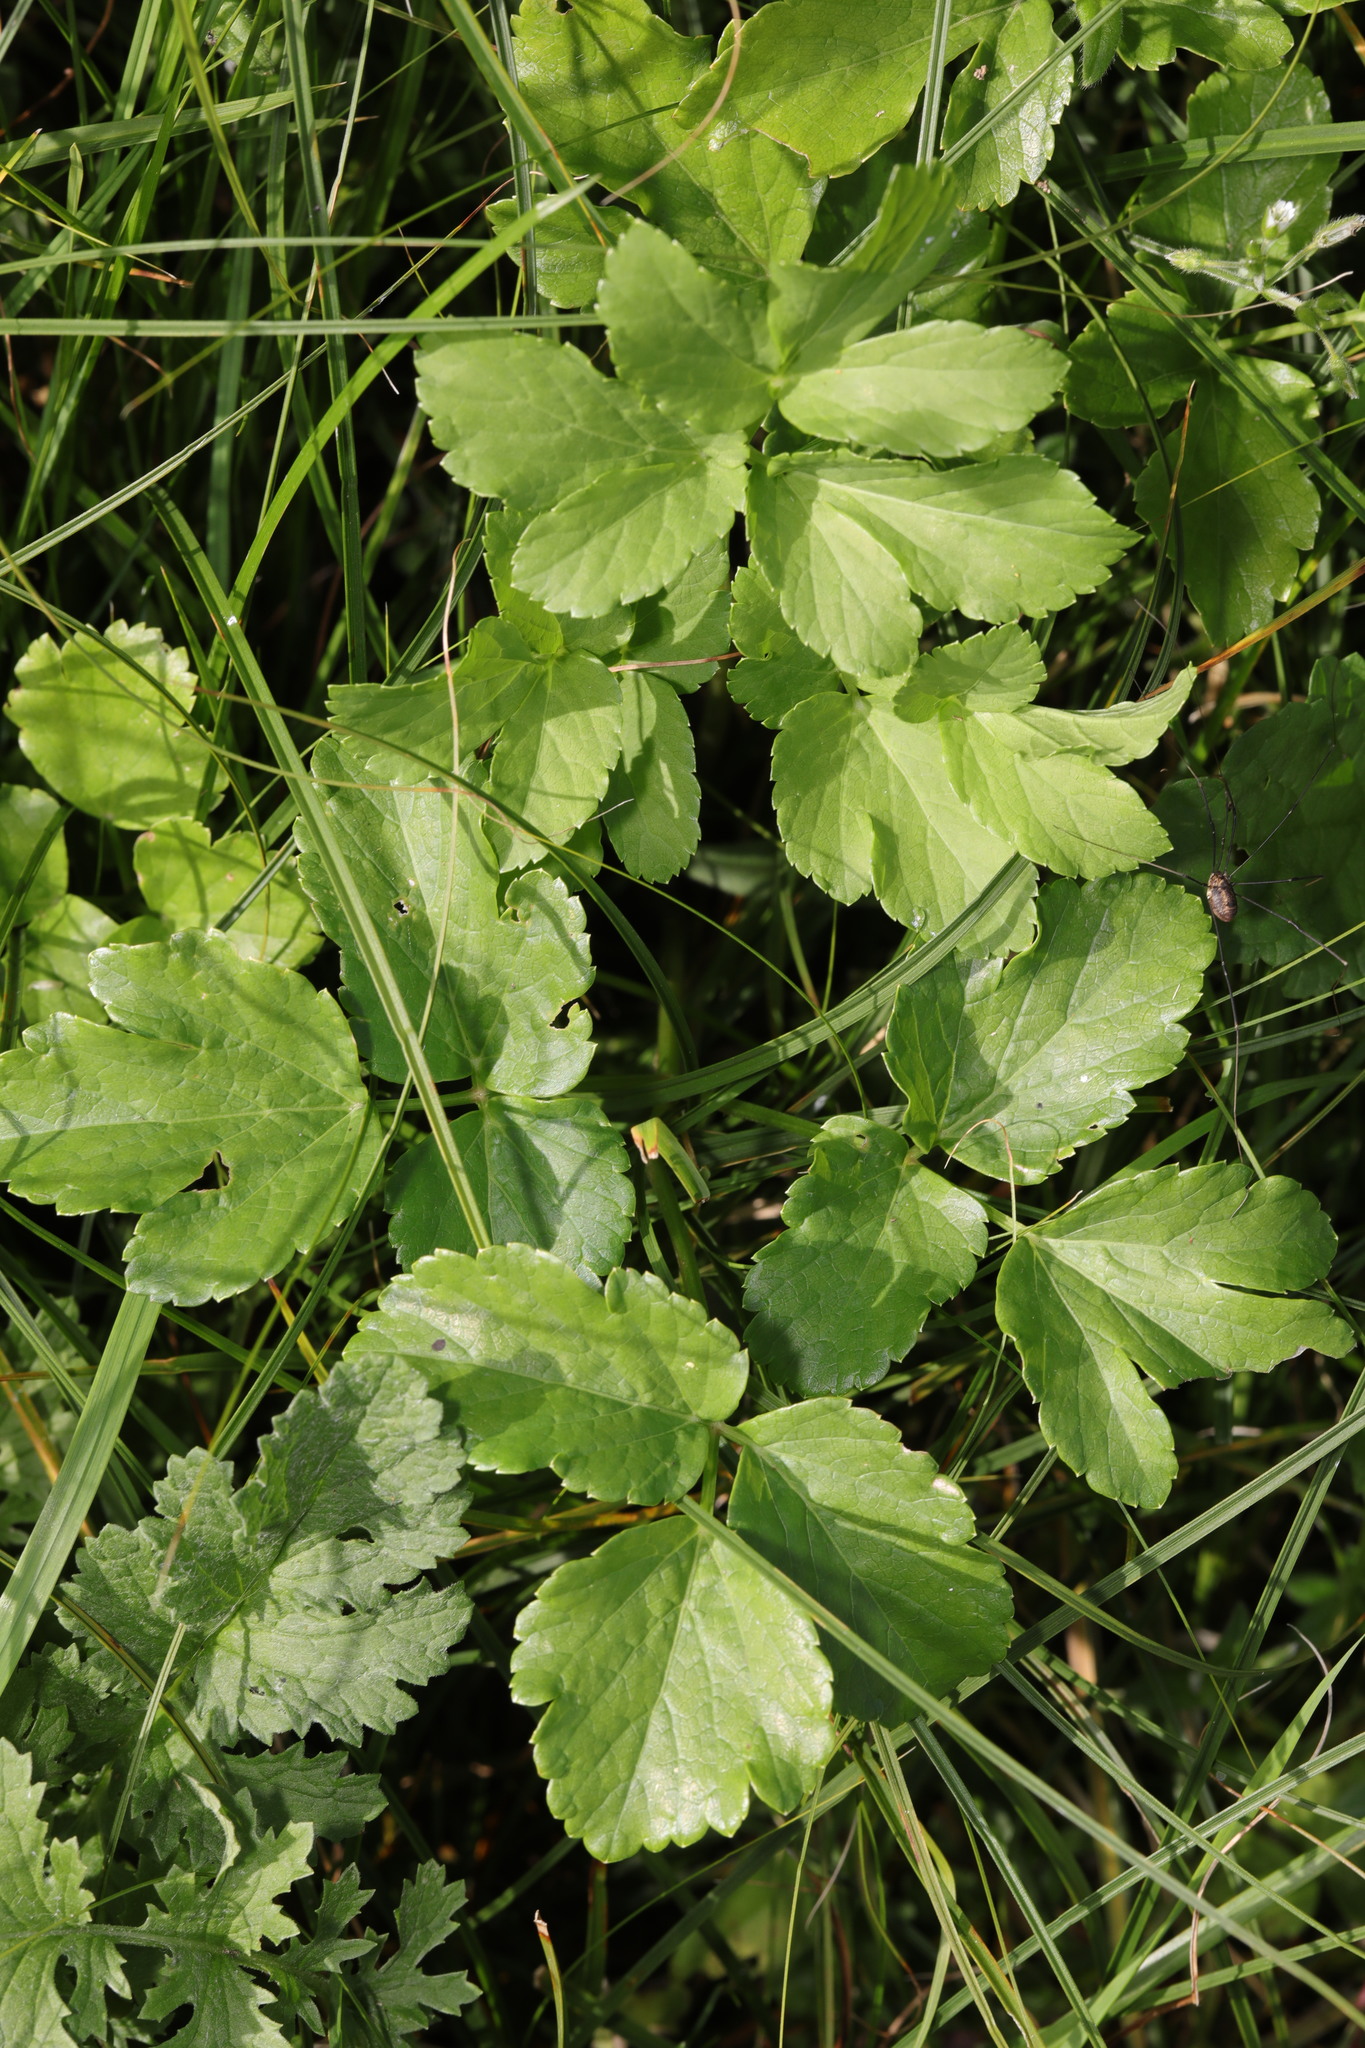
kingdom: Plantae
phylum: Tracheophyta
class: Magnoliopsida
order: Apiales
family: Apiaceae
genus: Smyrnium
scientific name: Smyrnium olusatrum
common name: Alexanders
